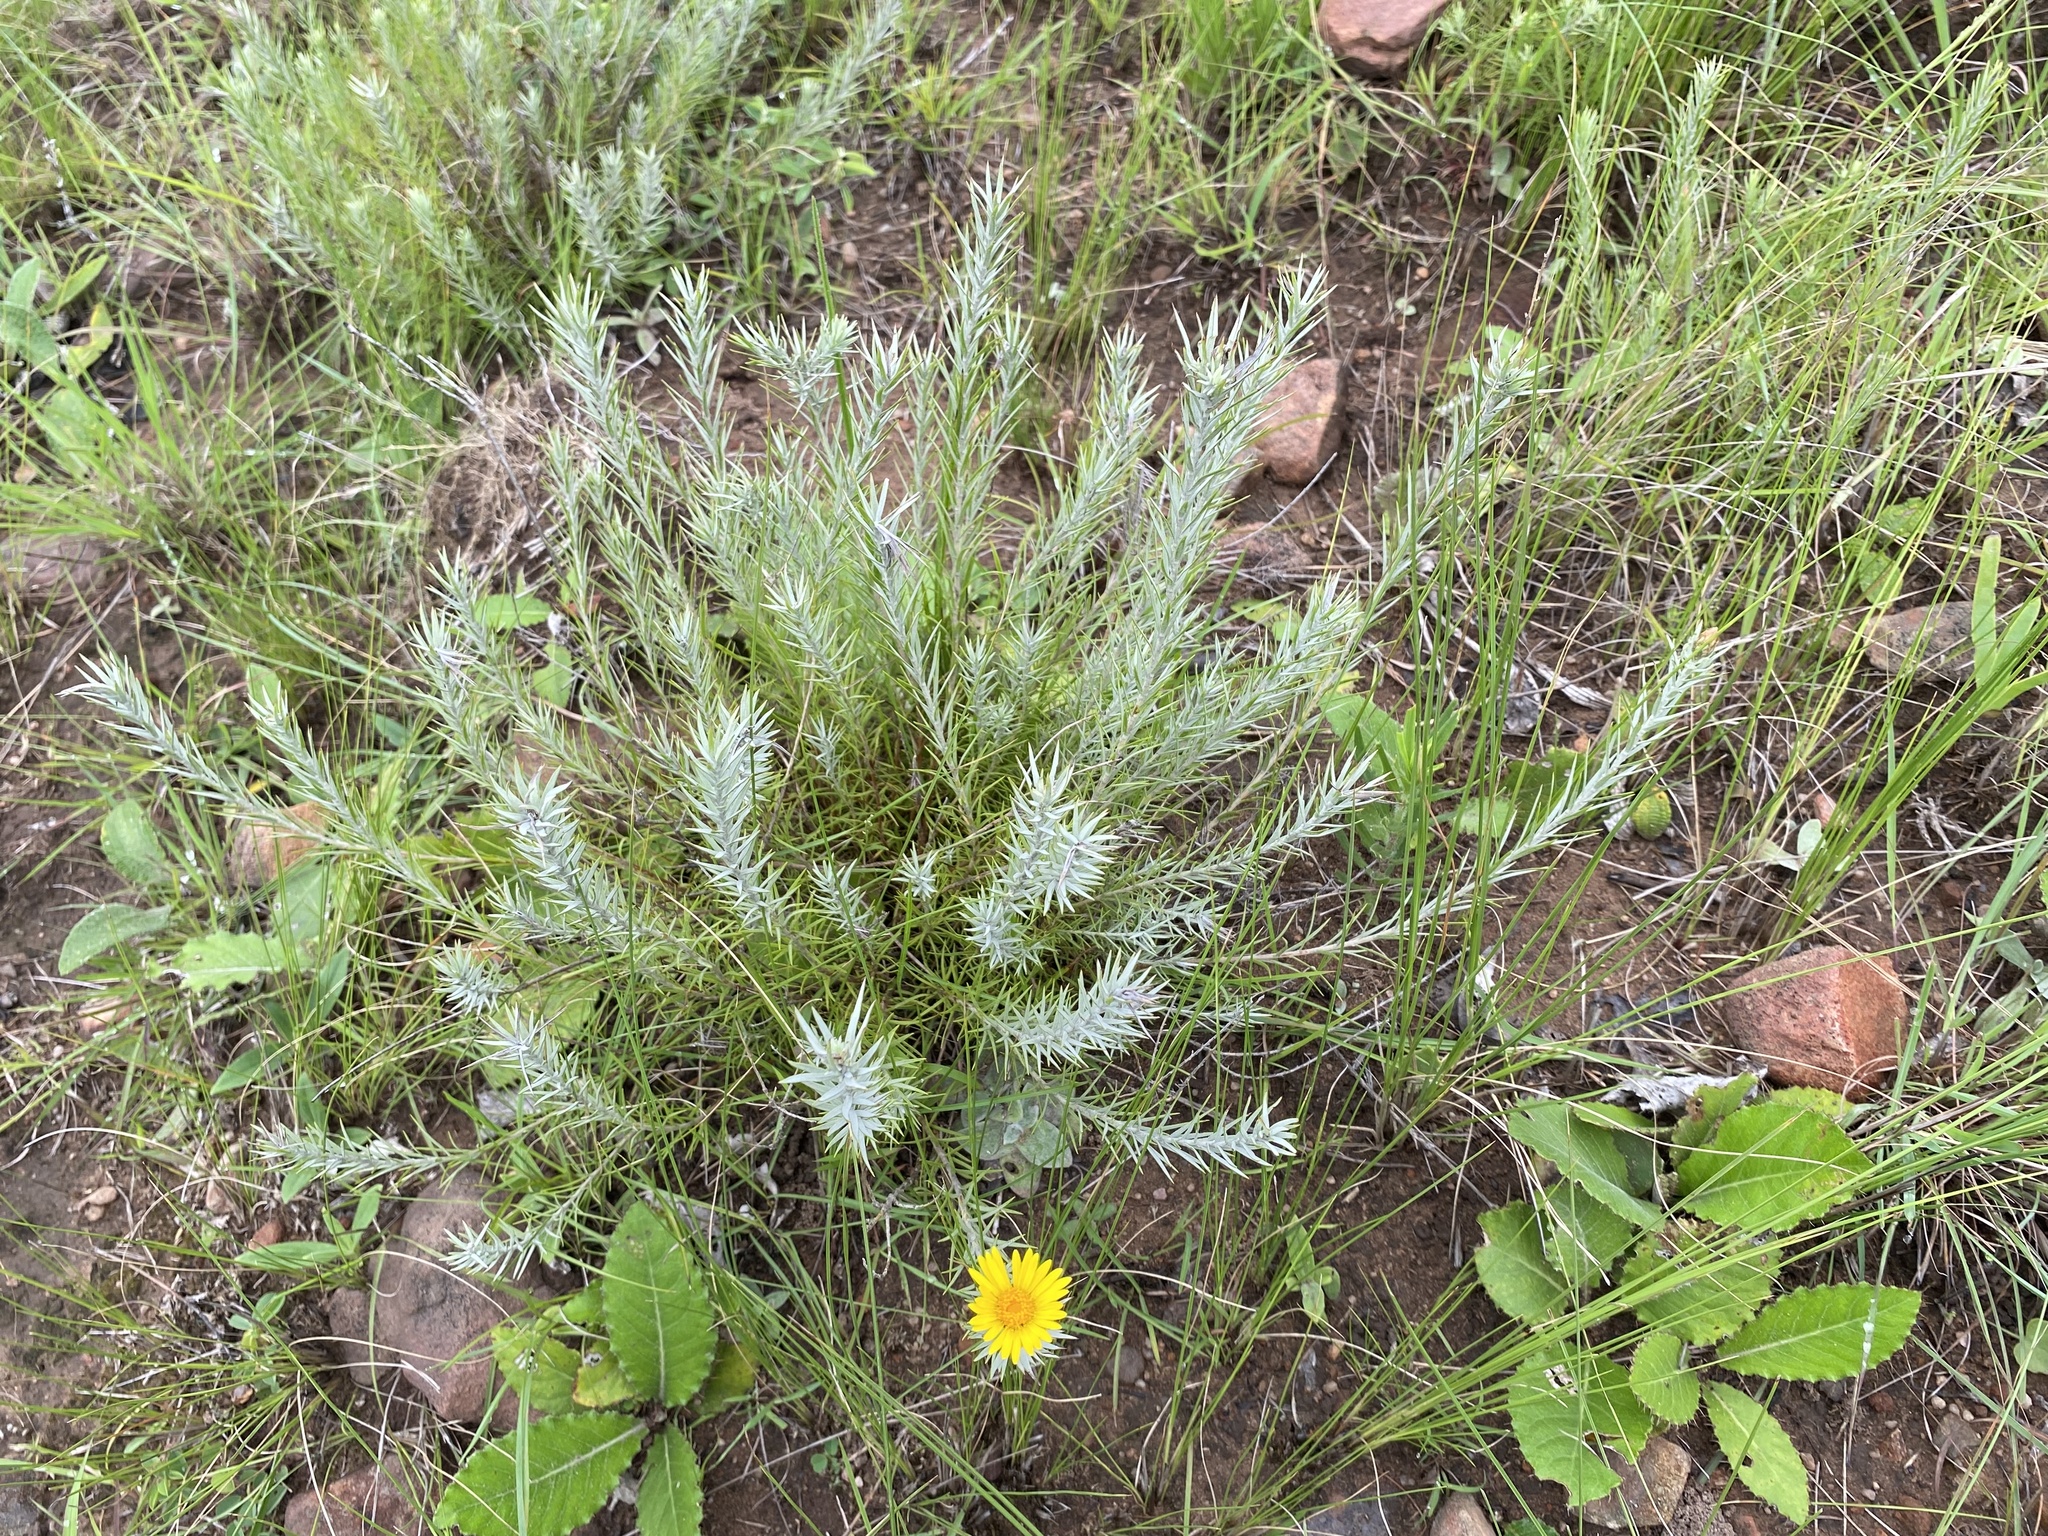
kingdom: Plantae
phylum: Tracheophyta
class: Magnoliopsida
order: Asterales
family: Asteraceae
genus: Helichrysum
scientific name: Helichrysum herbaceum
